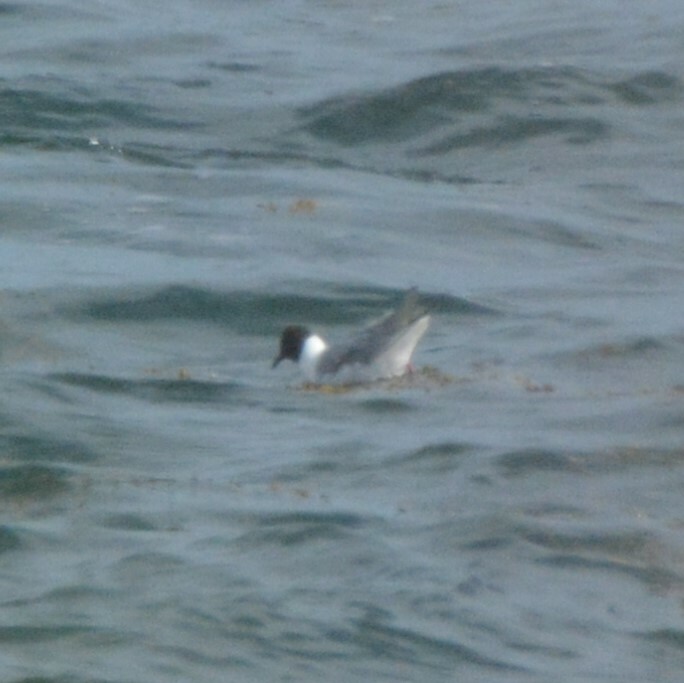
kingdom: Animalia
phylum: Chordata
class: Aves
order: Charadriiformes
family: Laridae
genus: Chroicocephalus
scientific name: Chroicocephalus philadelphia
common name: Bonaparte's gull
